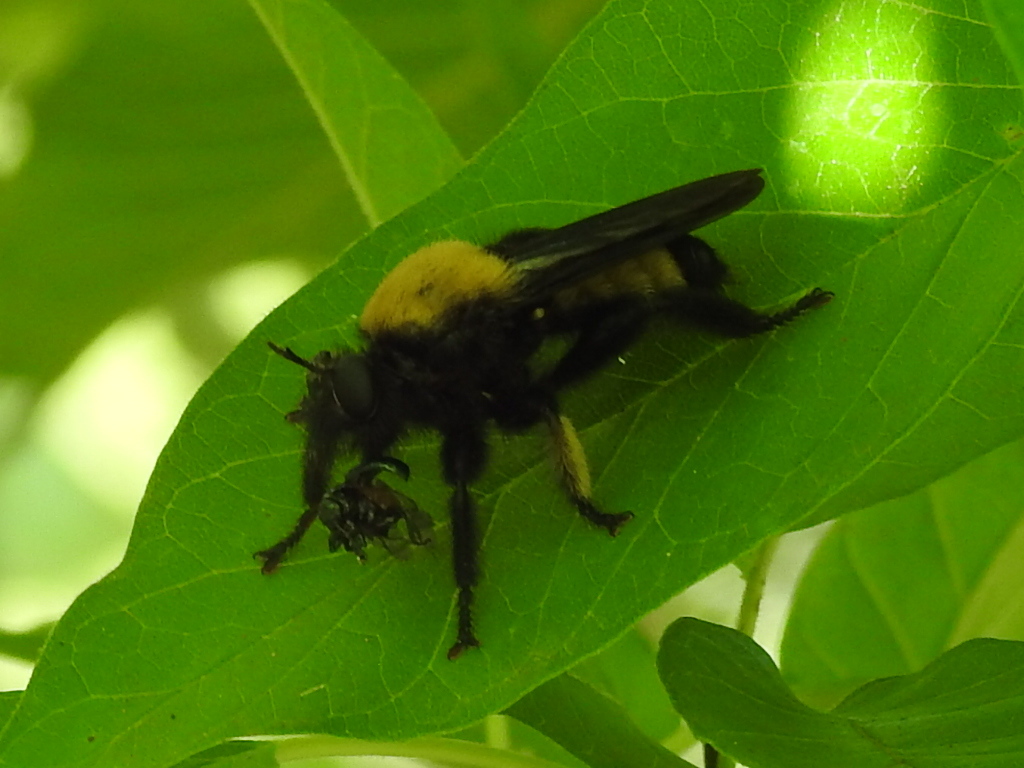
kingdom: Animalia
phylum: Arthropoda
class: Insecta
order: Diptera
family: Asilidae
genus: Laphria
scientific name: Laphria macquarti
